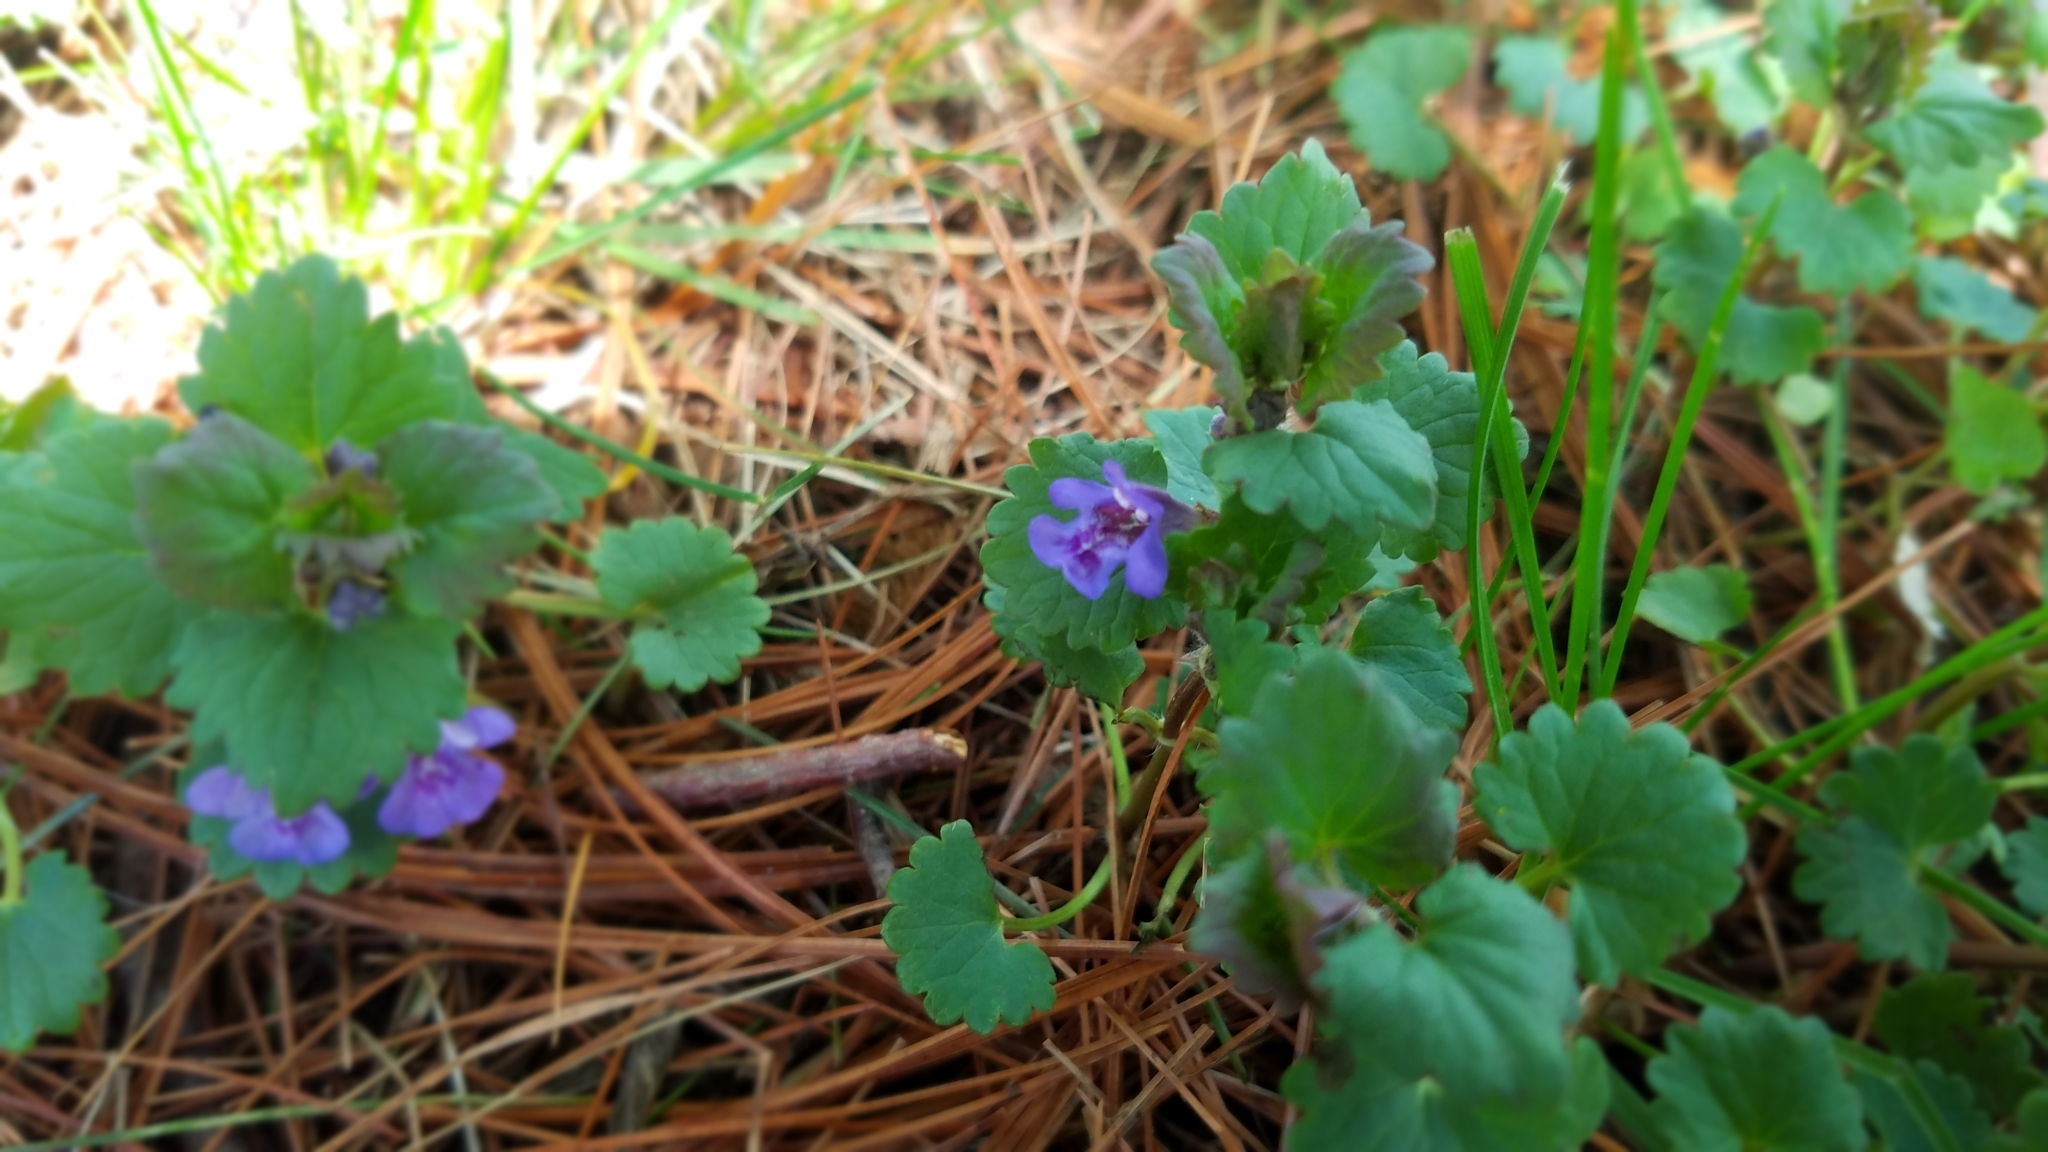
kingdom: Plantae
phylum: Tracheophyta
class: Magnoliopsida
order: Lamiales
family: Lamiaceae
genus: Glechoma
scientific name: Glechoma hederacea
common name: Ground ivy
